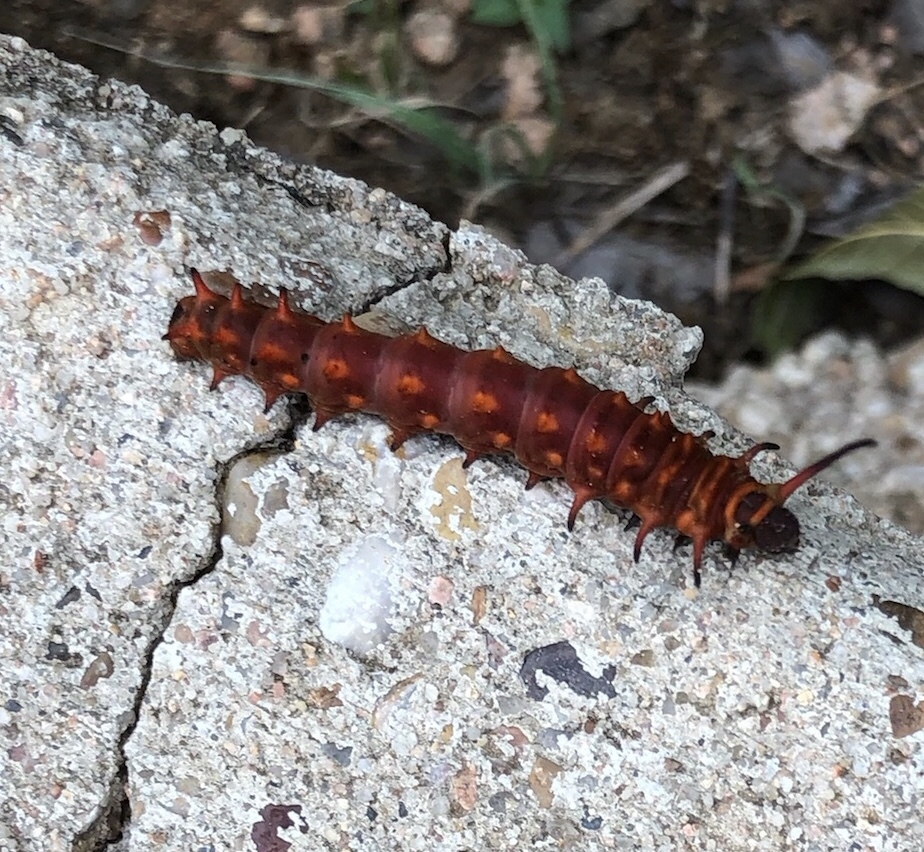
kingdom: Animalia
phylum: Arthropoda
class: Insecta
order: Lepidoptera
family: Papilionidae
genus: Battus
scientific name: Battus philenor
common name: Pipevine swallowtail
